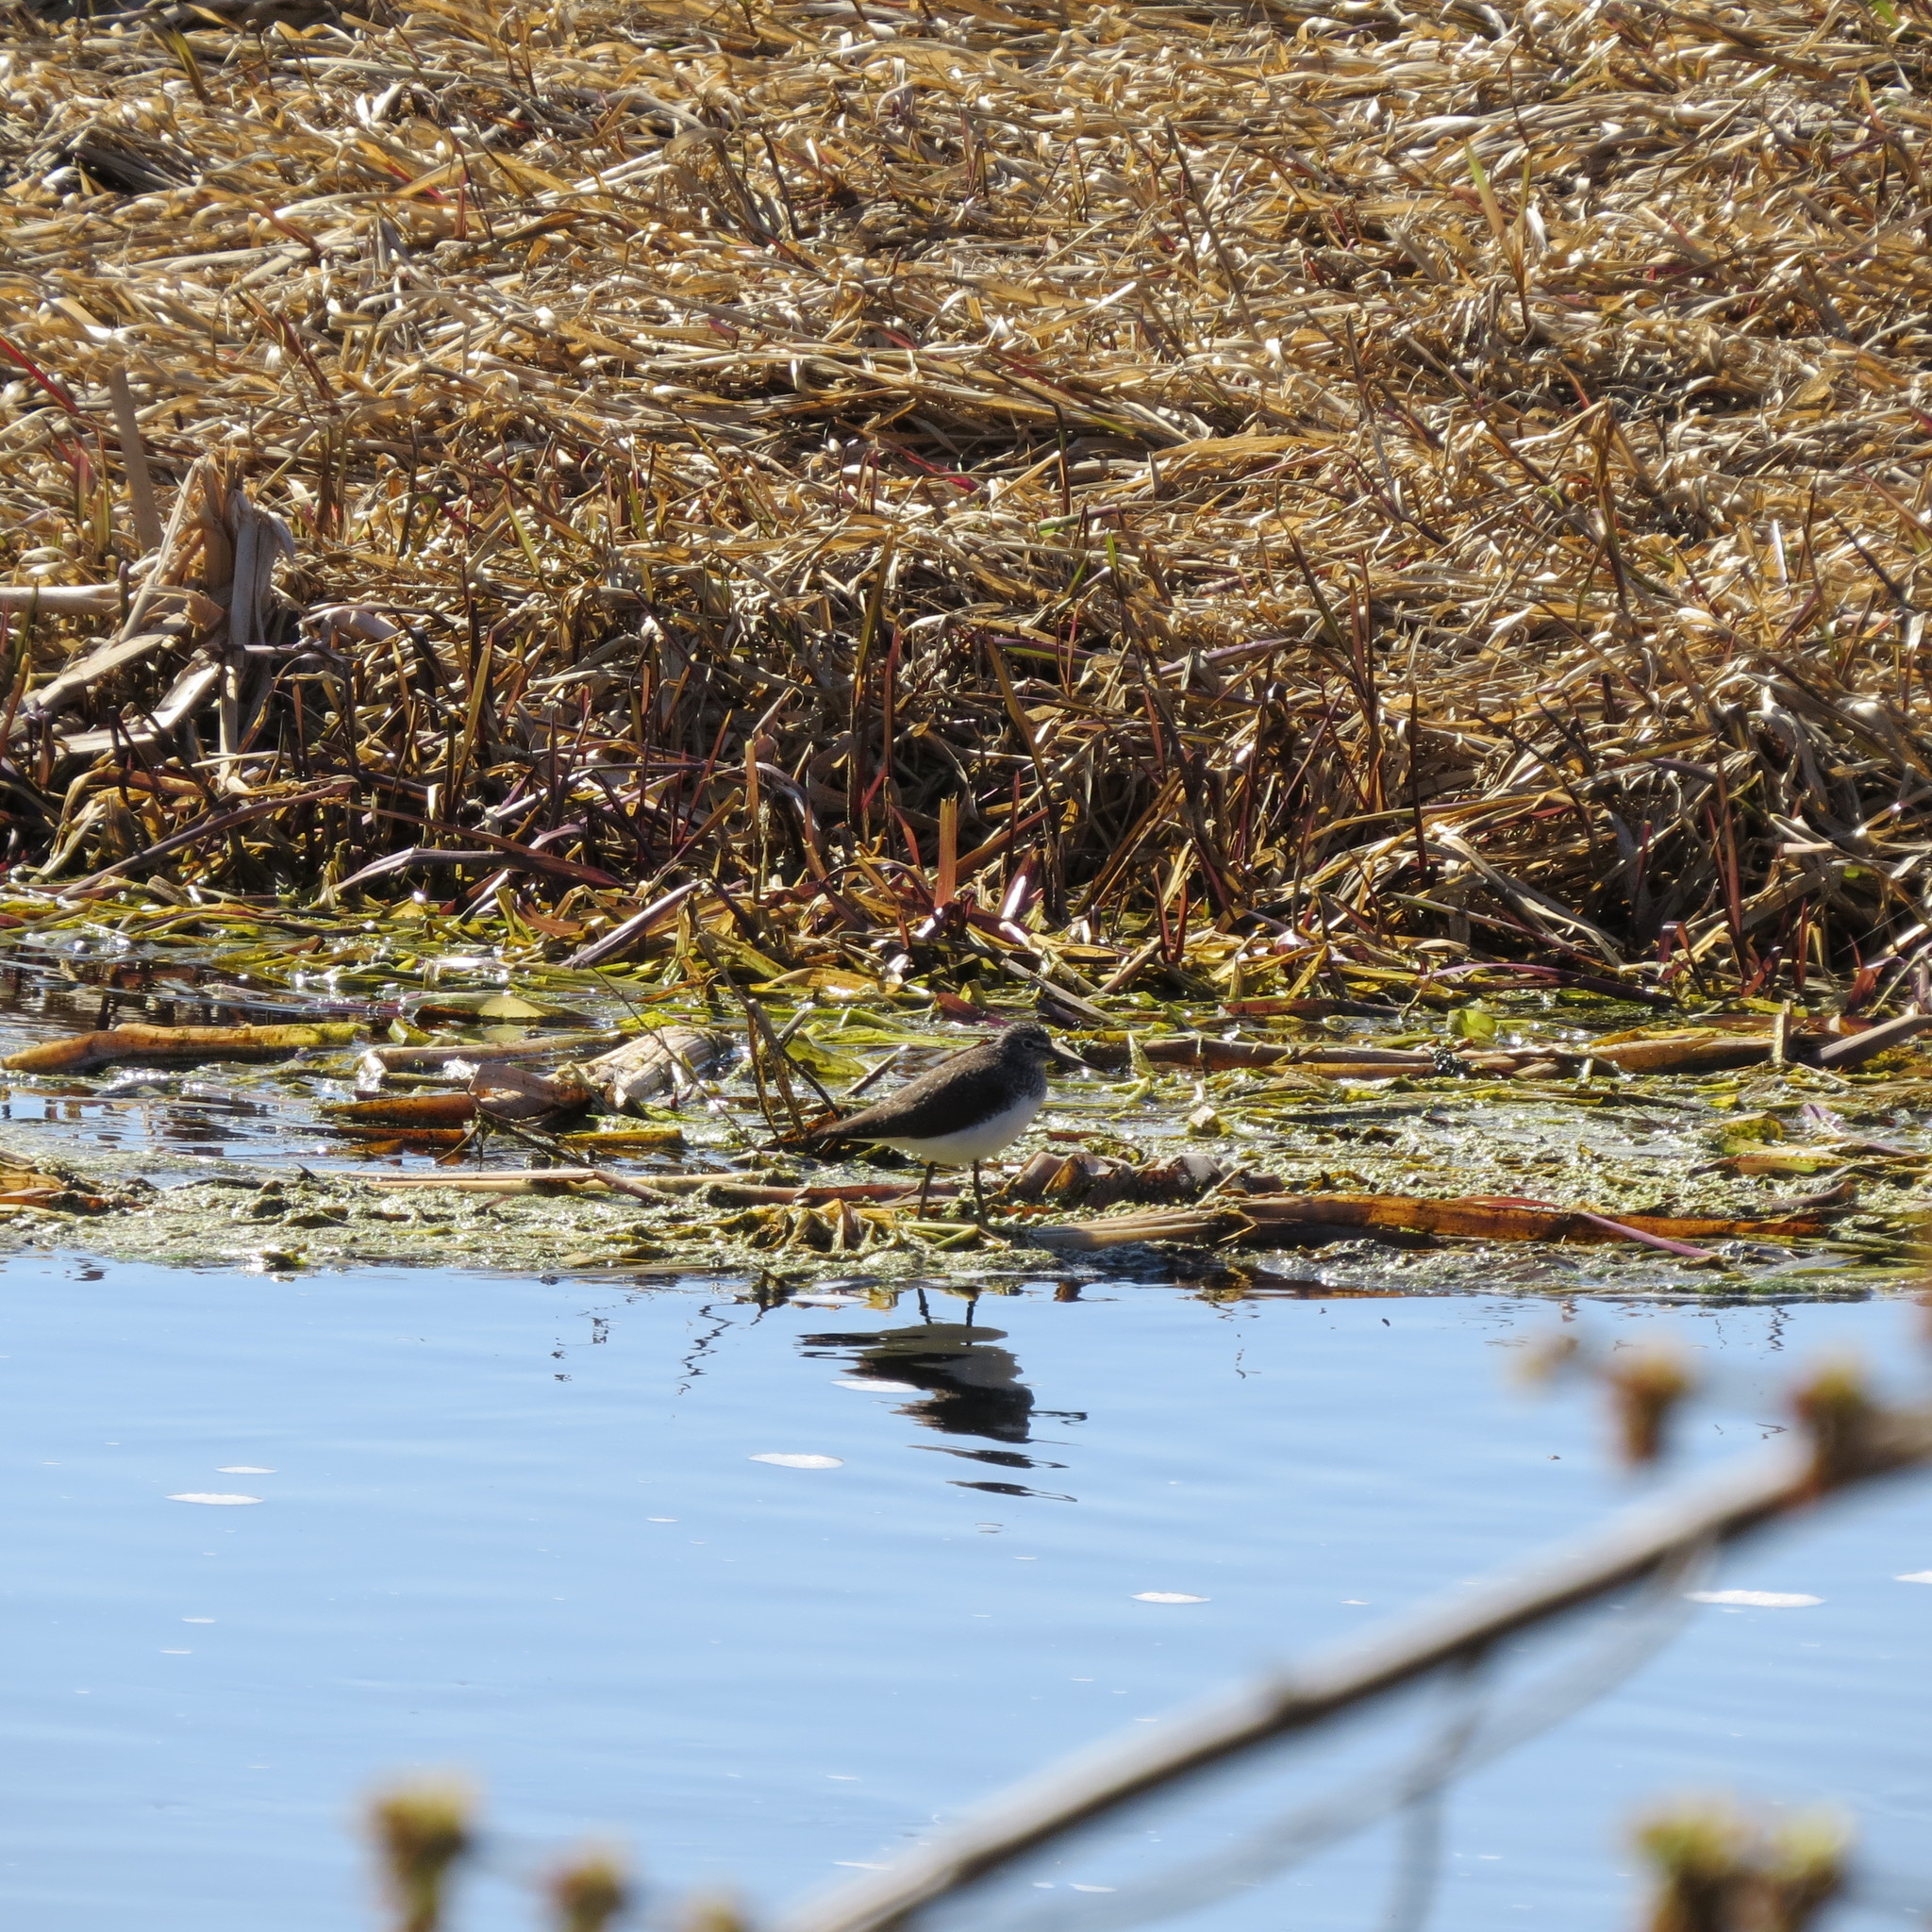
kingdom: Animalia
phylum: Chordata
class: Aves
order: Charadriiformes
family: Scolopacidae
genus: Tringa
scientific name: Tringa ochropus
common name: Green sandpiper
